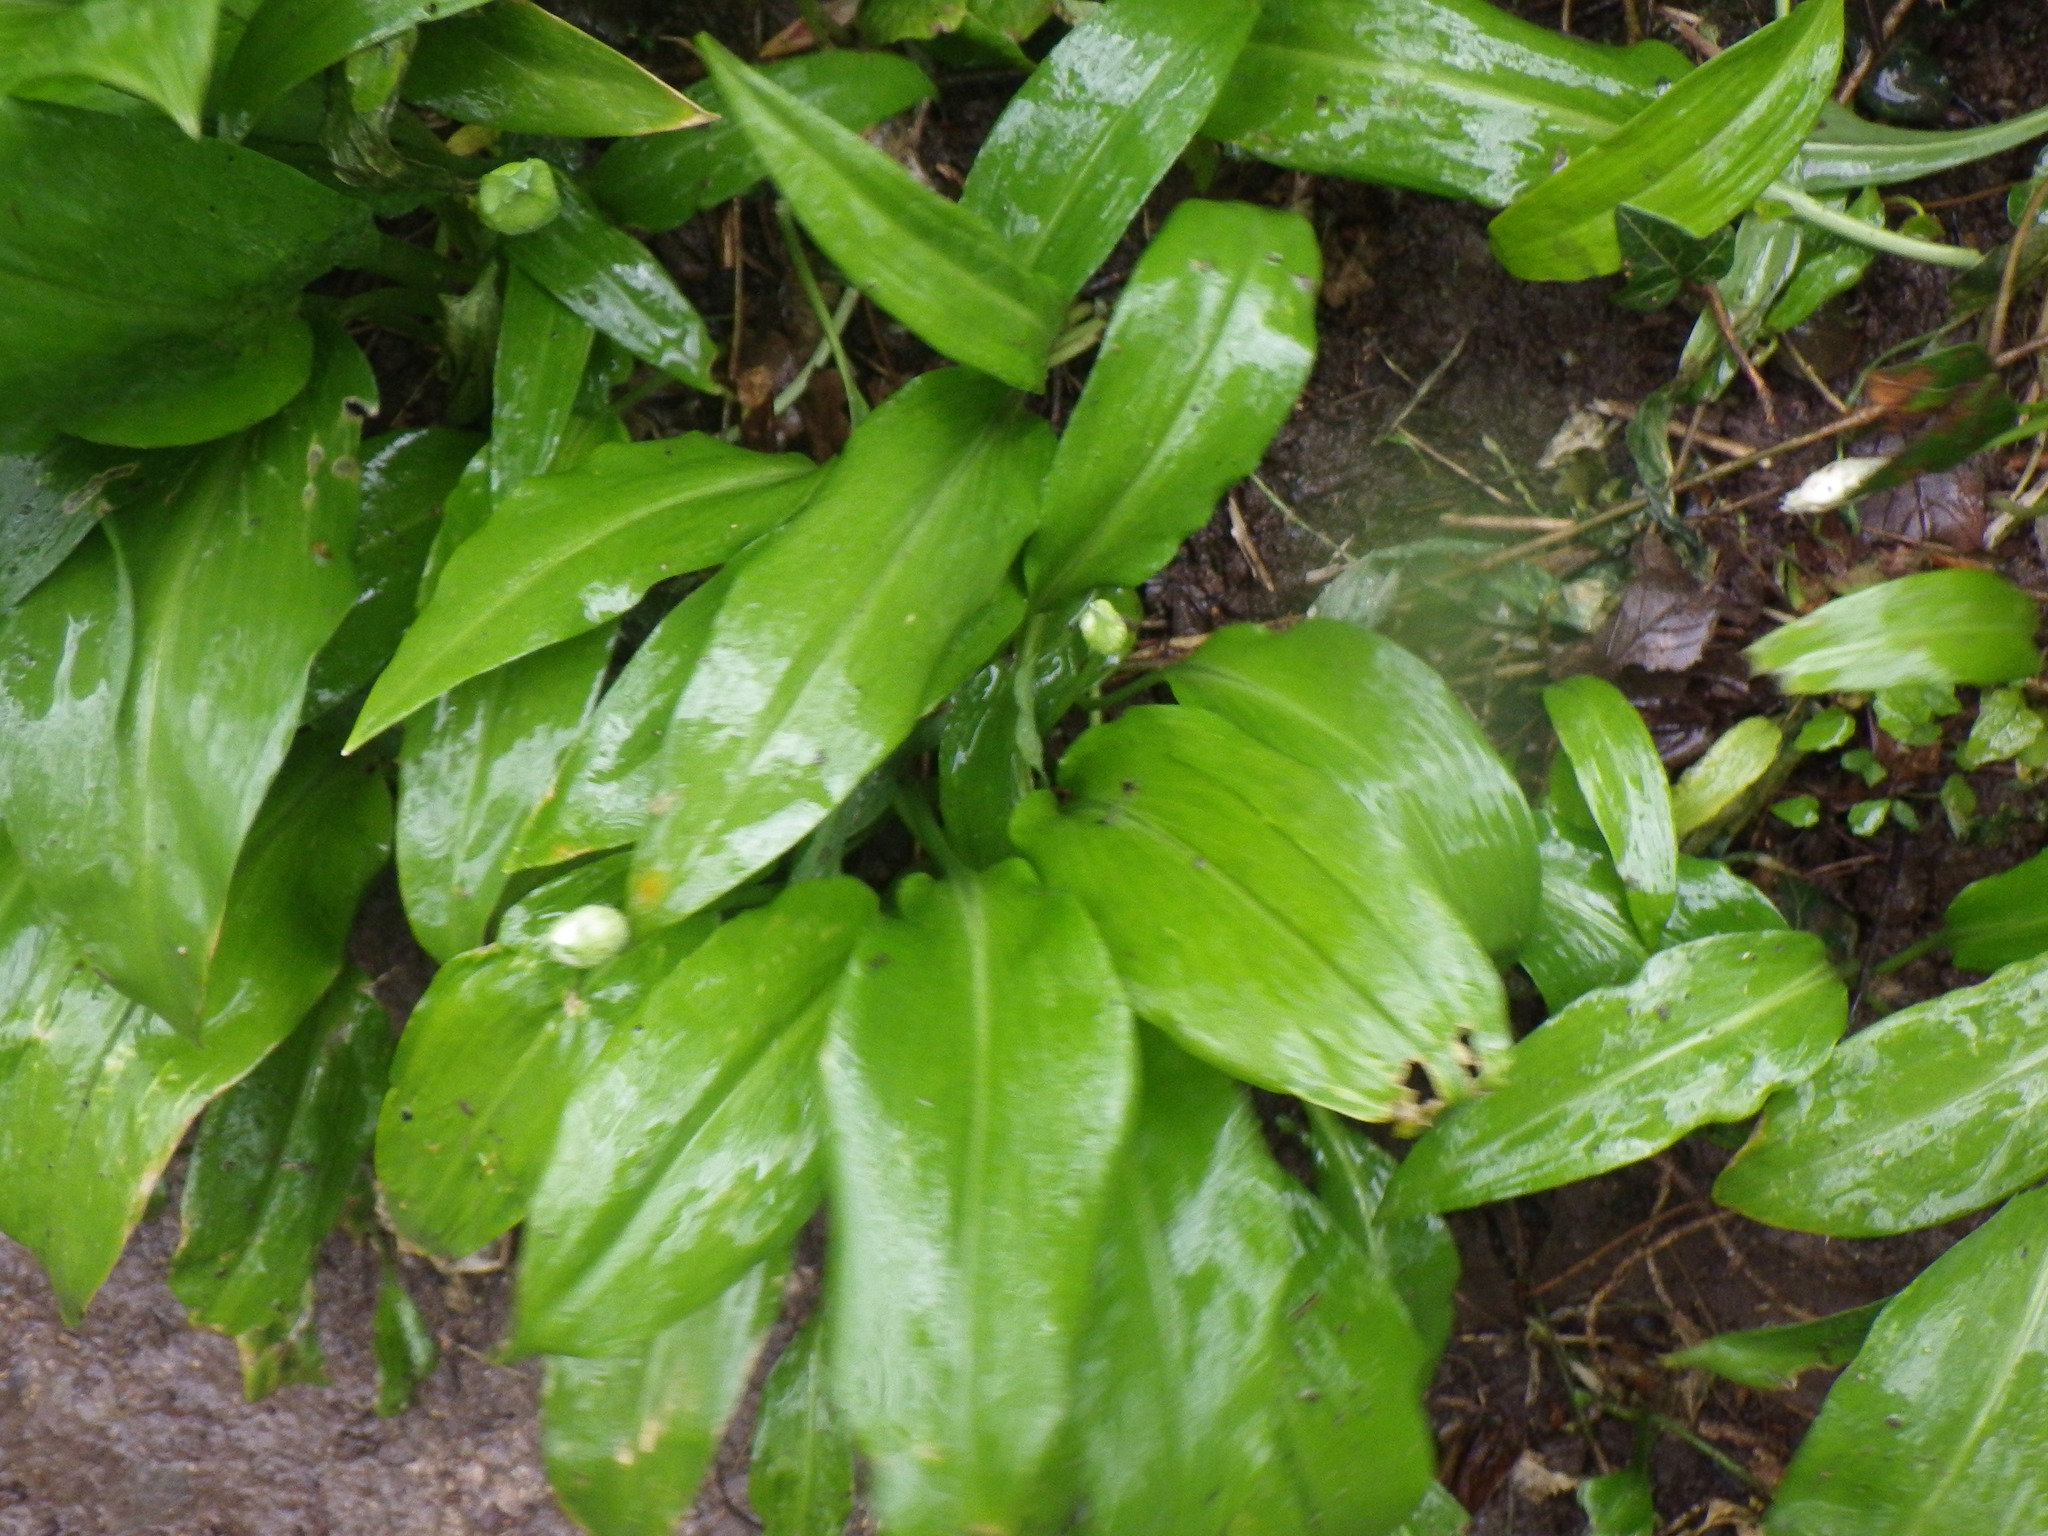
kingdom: Plantae
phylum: Tracheophyta
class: Liliopsida
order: Asparagales
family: Amaryllidaceae
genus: Allium
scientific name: Allium ursinum
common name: Ramsons
